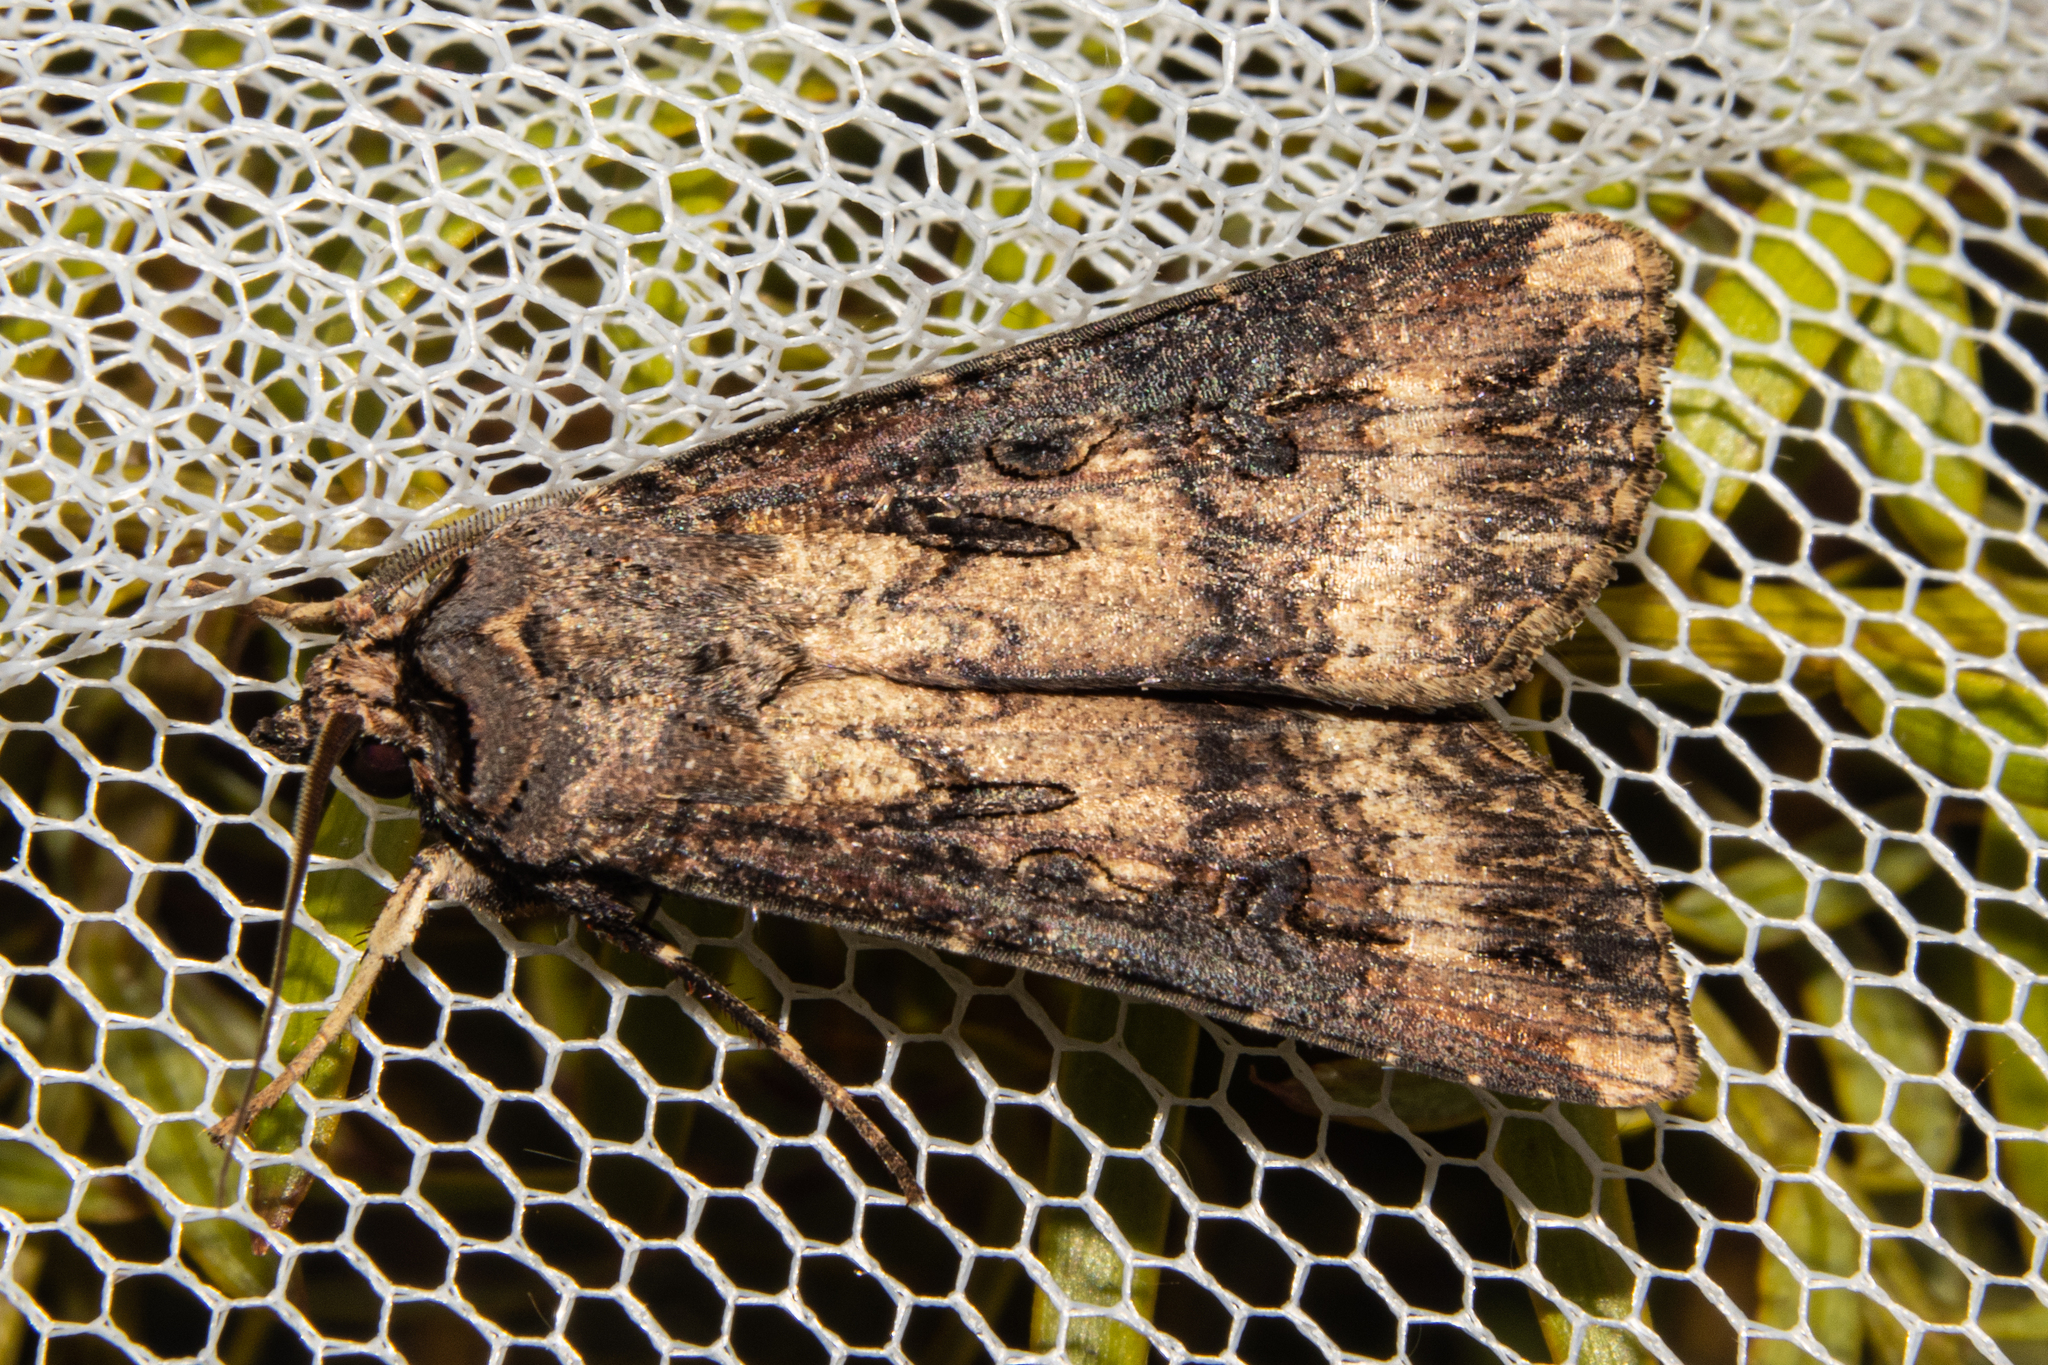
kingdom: Animalia
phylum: Arthropoda
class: Insecta
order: Lepidoptera
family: Noctuidae
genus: Agrotis
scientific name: Agrotis ipsilon
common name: Dark sword-grass
